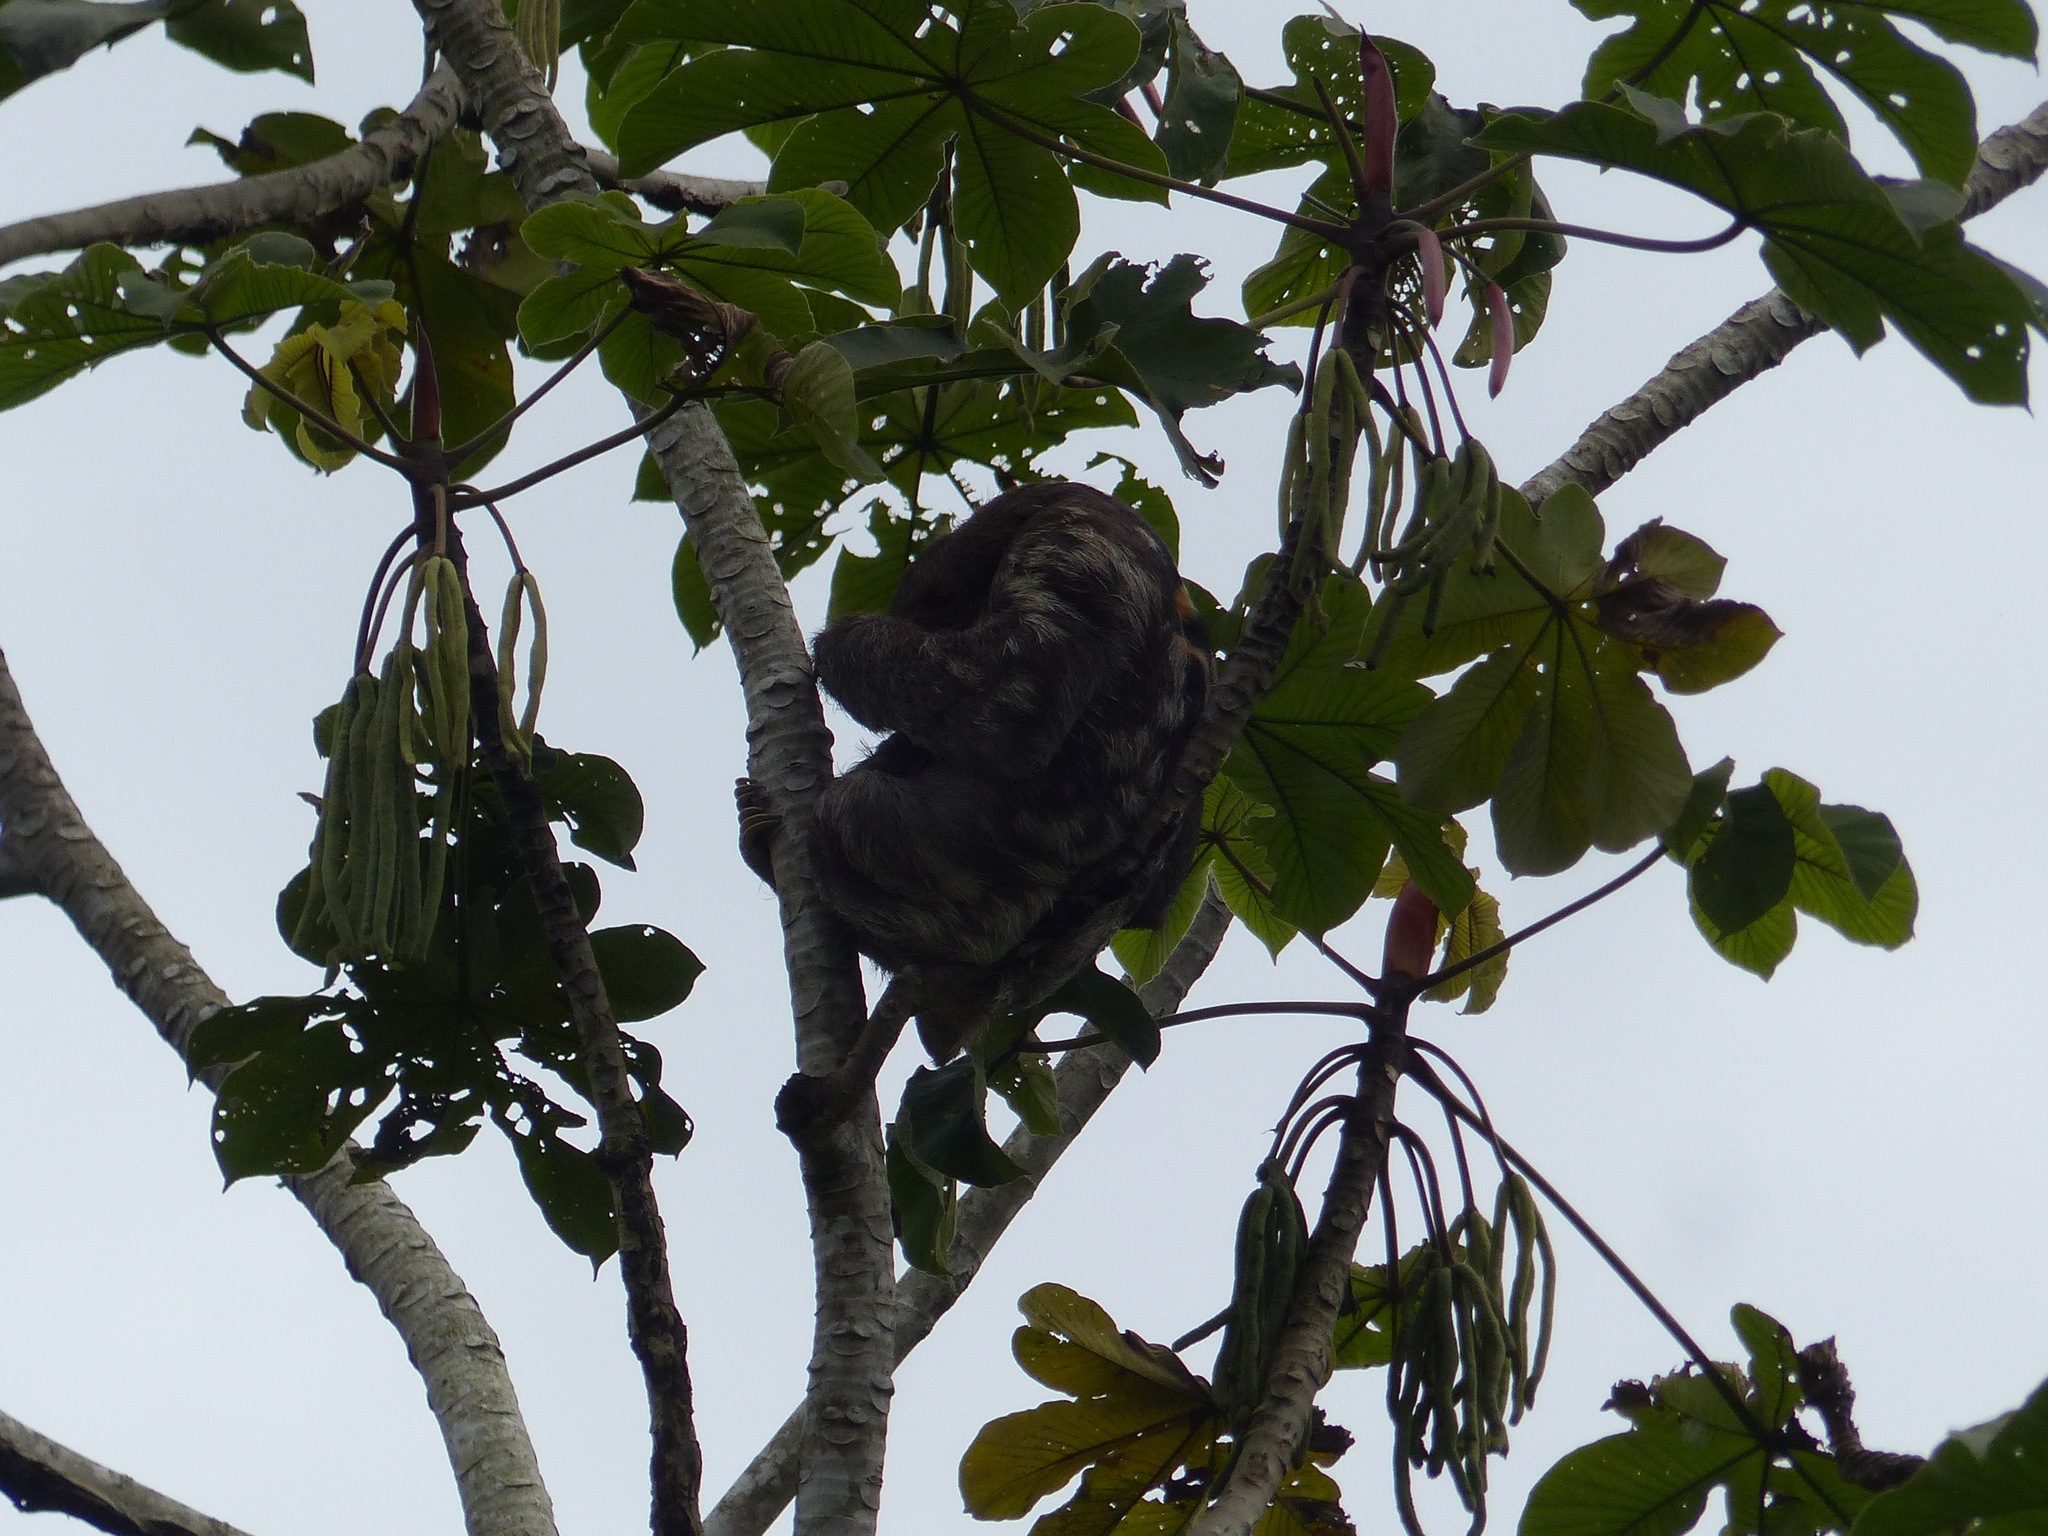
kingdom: Animalia
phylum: Chordata
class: Mammalia
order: Pilosa
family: Bradypodidae
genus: Bradypus
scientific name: Bradypus tridactylus
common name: Pale-throated three-toed sloth
